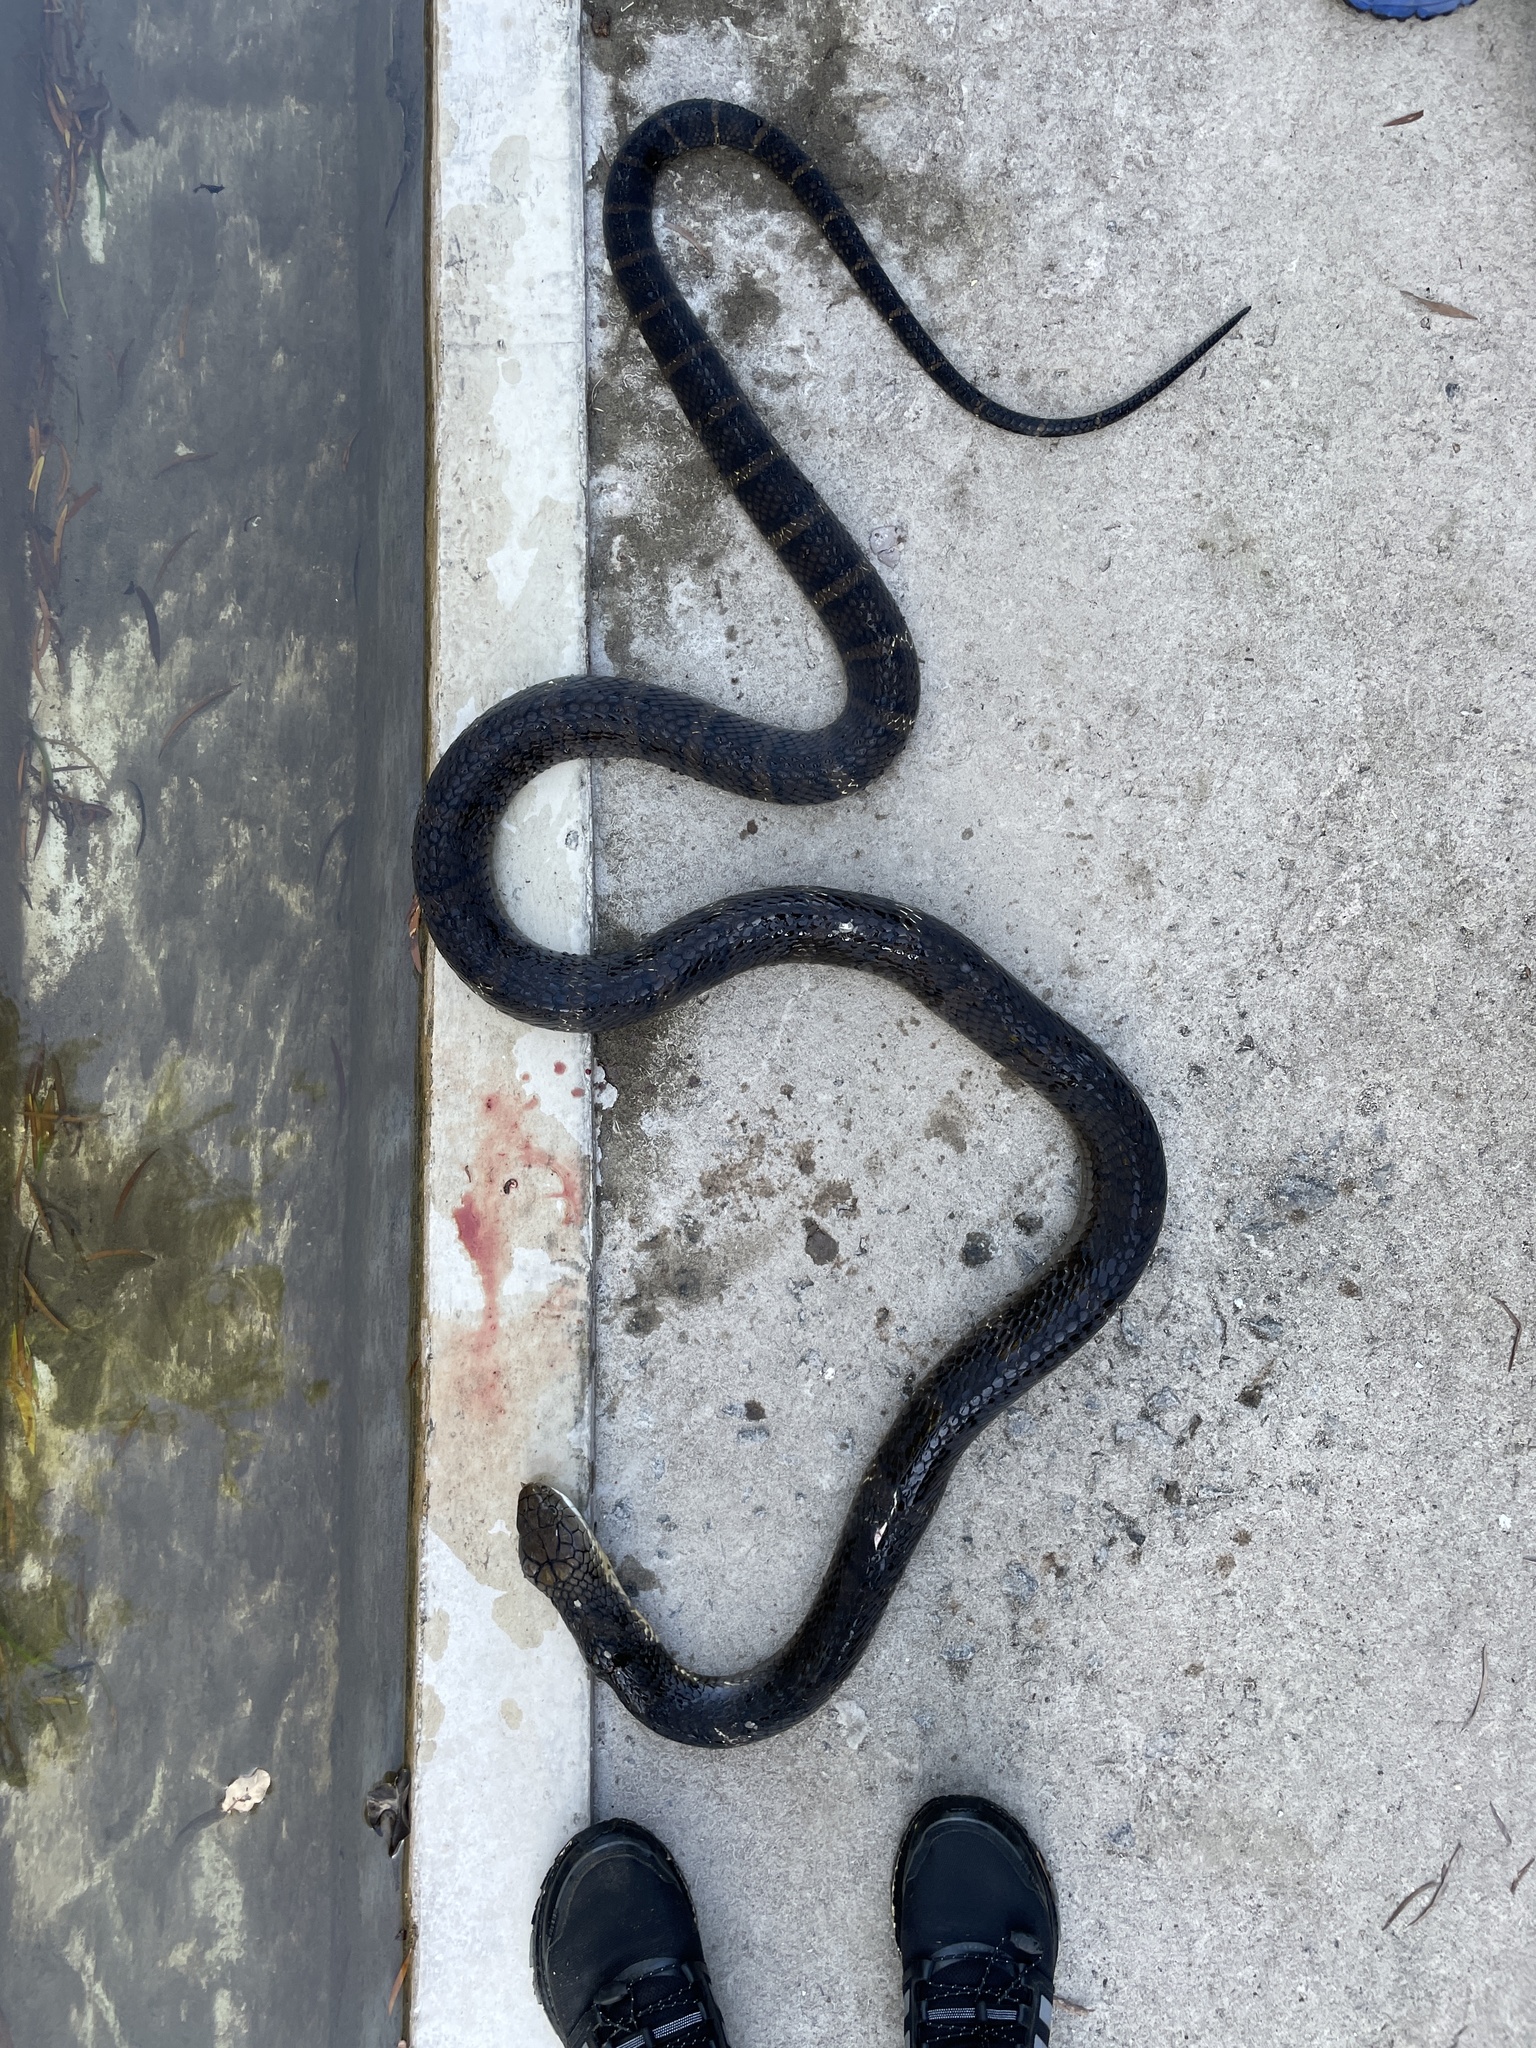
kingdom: Animalia
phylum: Chordata
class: Squamata
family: Elapidae
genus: Ophiophagus
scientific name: Ophiophagus hannah
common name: Hamadryad
